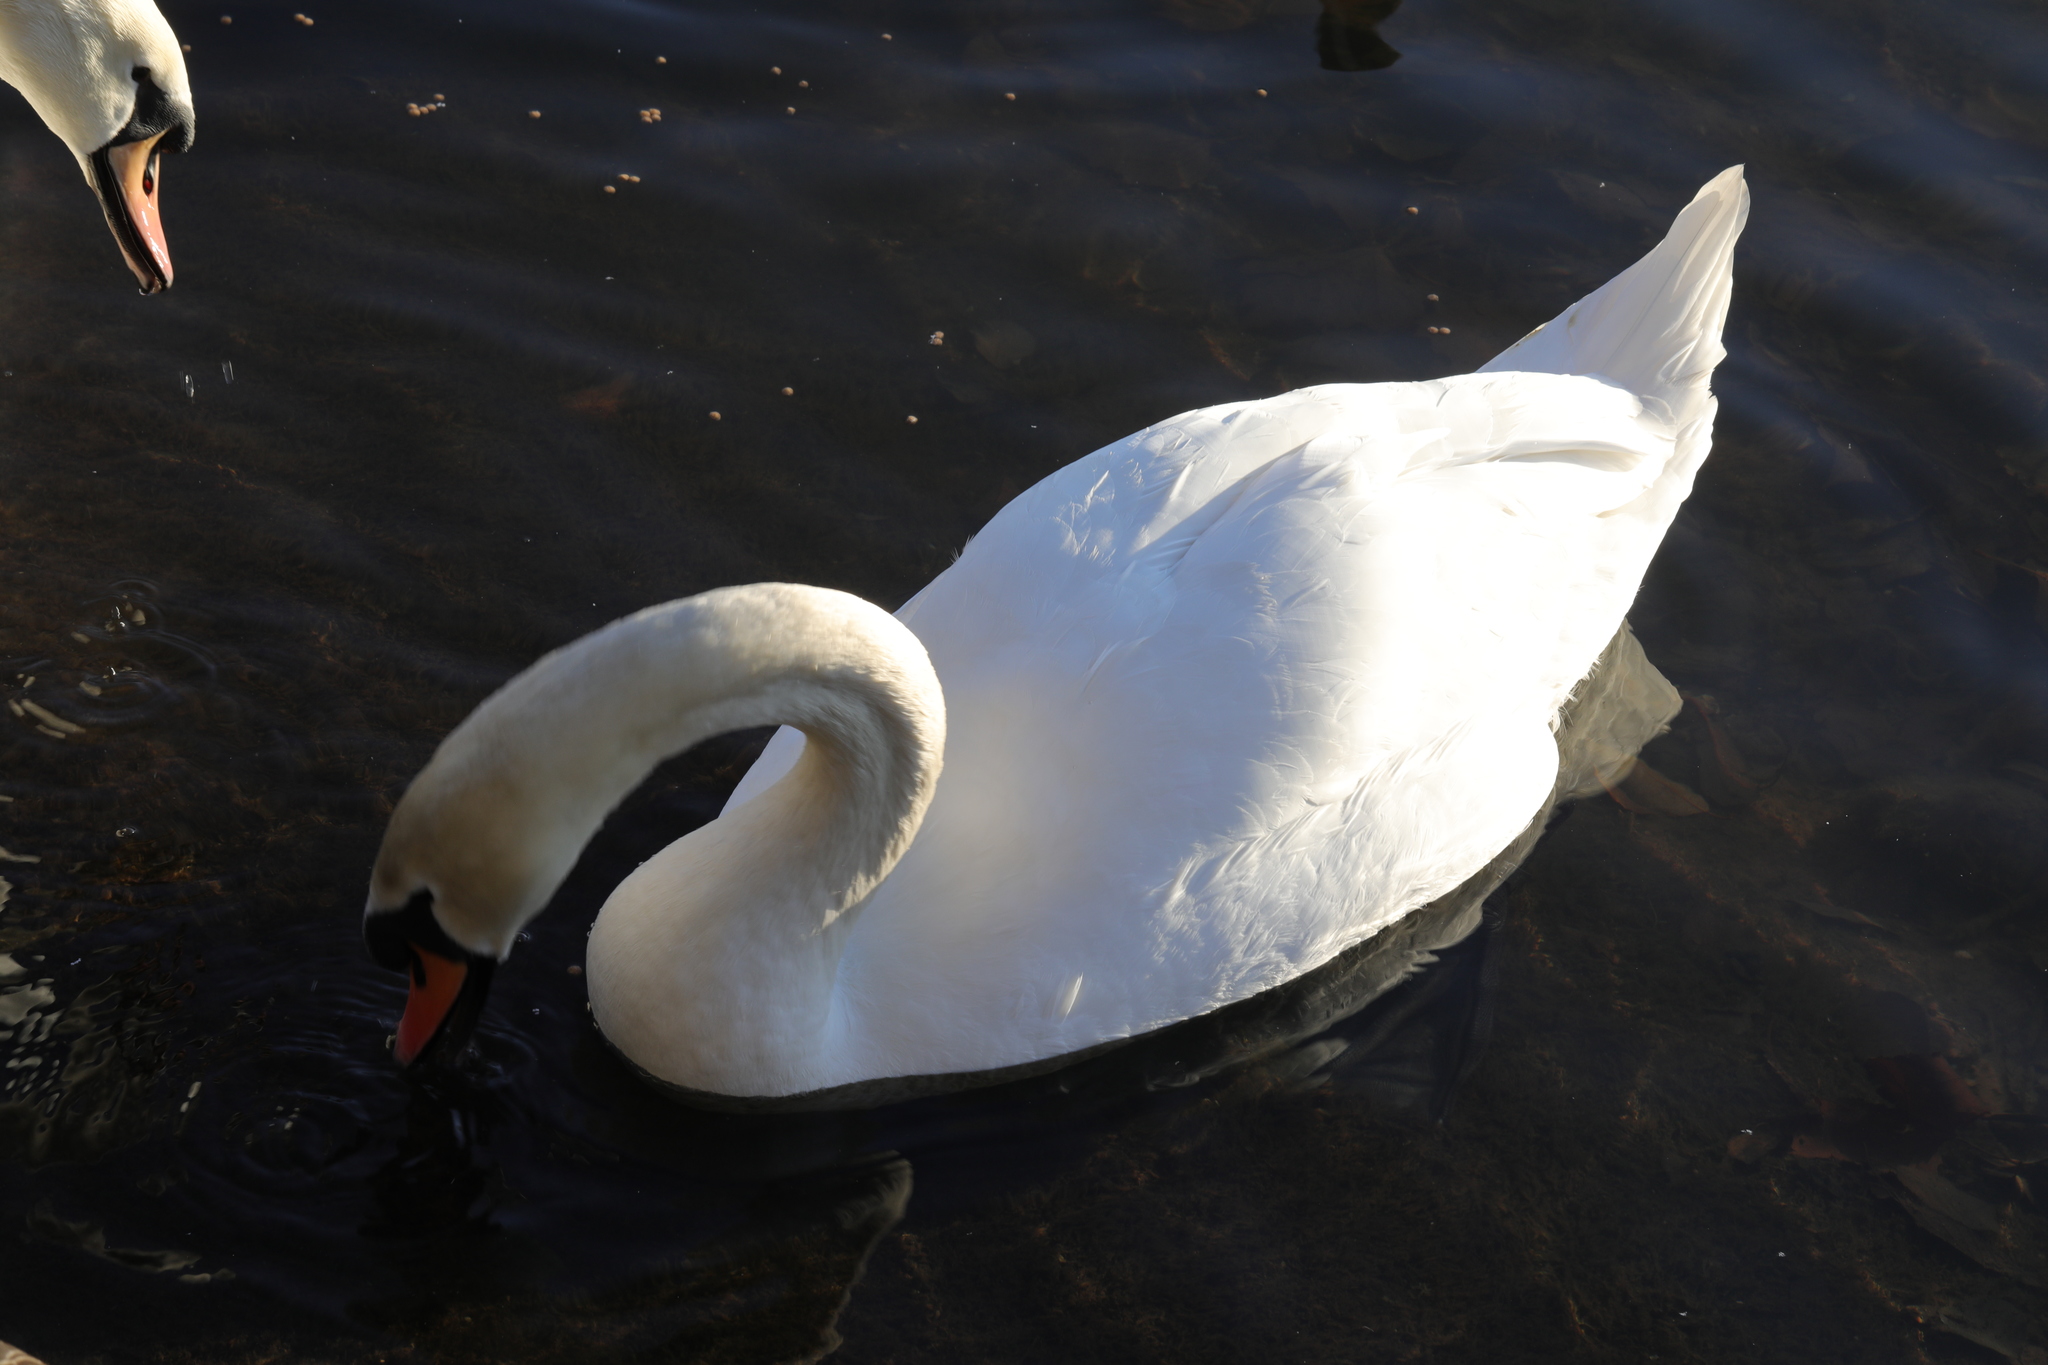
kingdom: Animalia
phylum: Chordata
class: Aves
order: Anseriformes
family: Anatidae
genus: Cygnus
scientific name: Cygnus olor
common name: Mute swan
